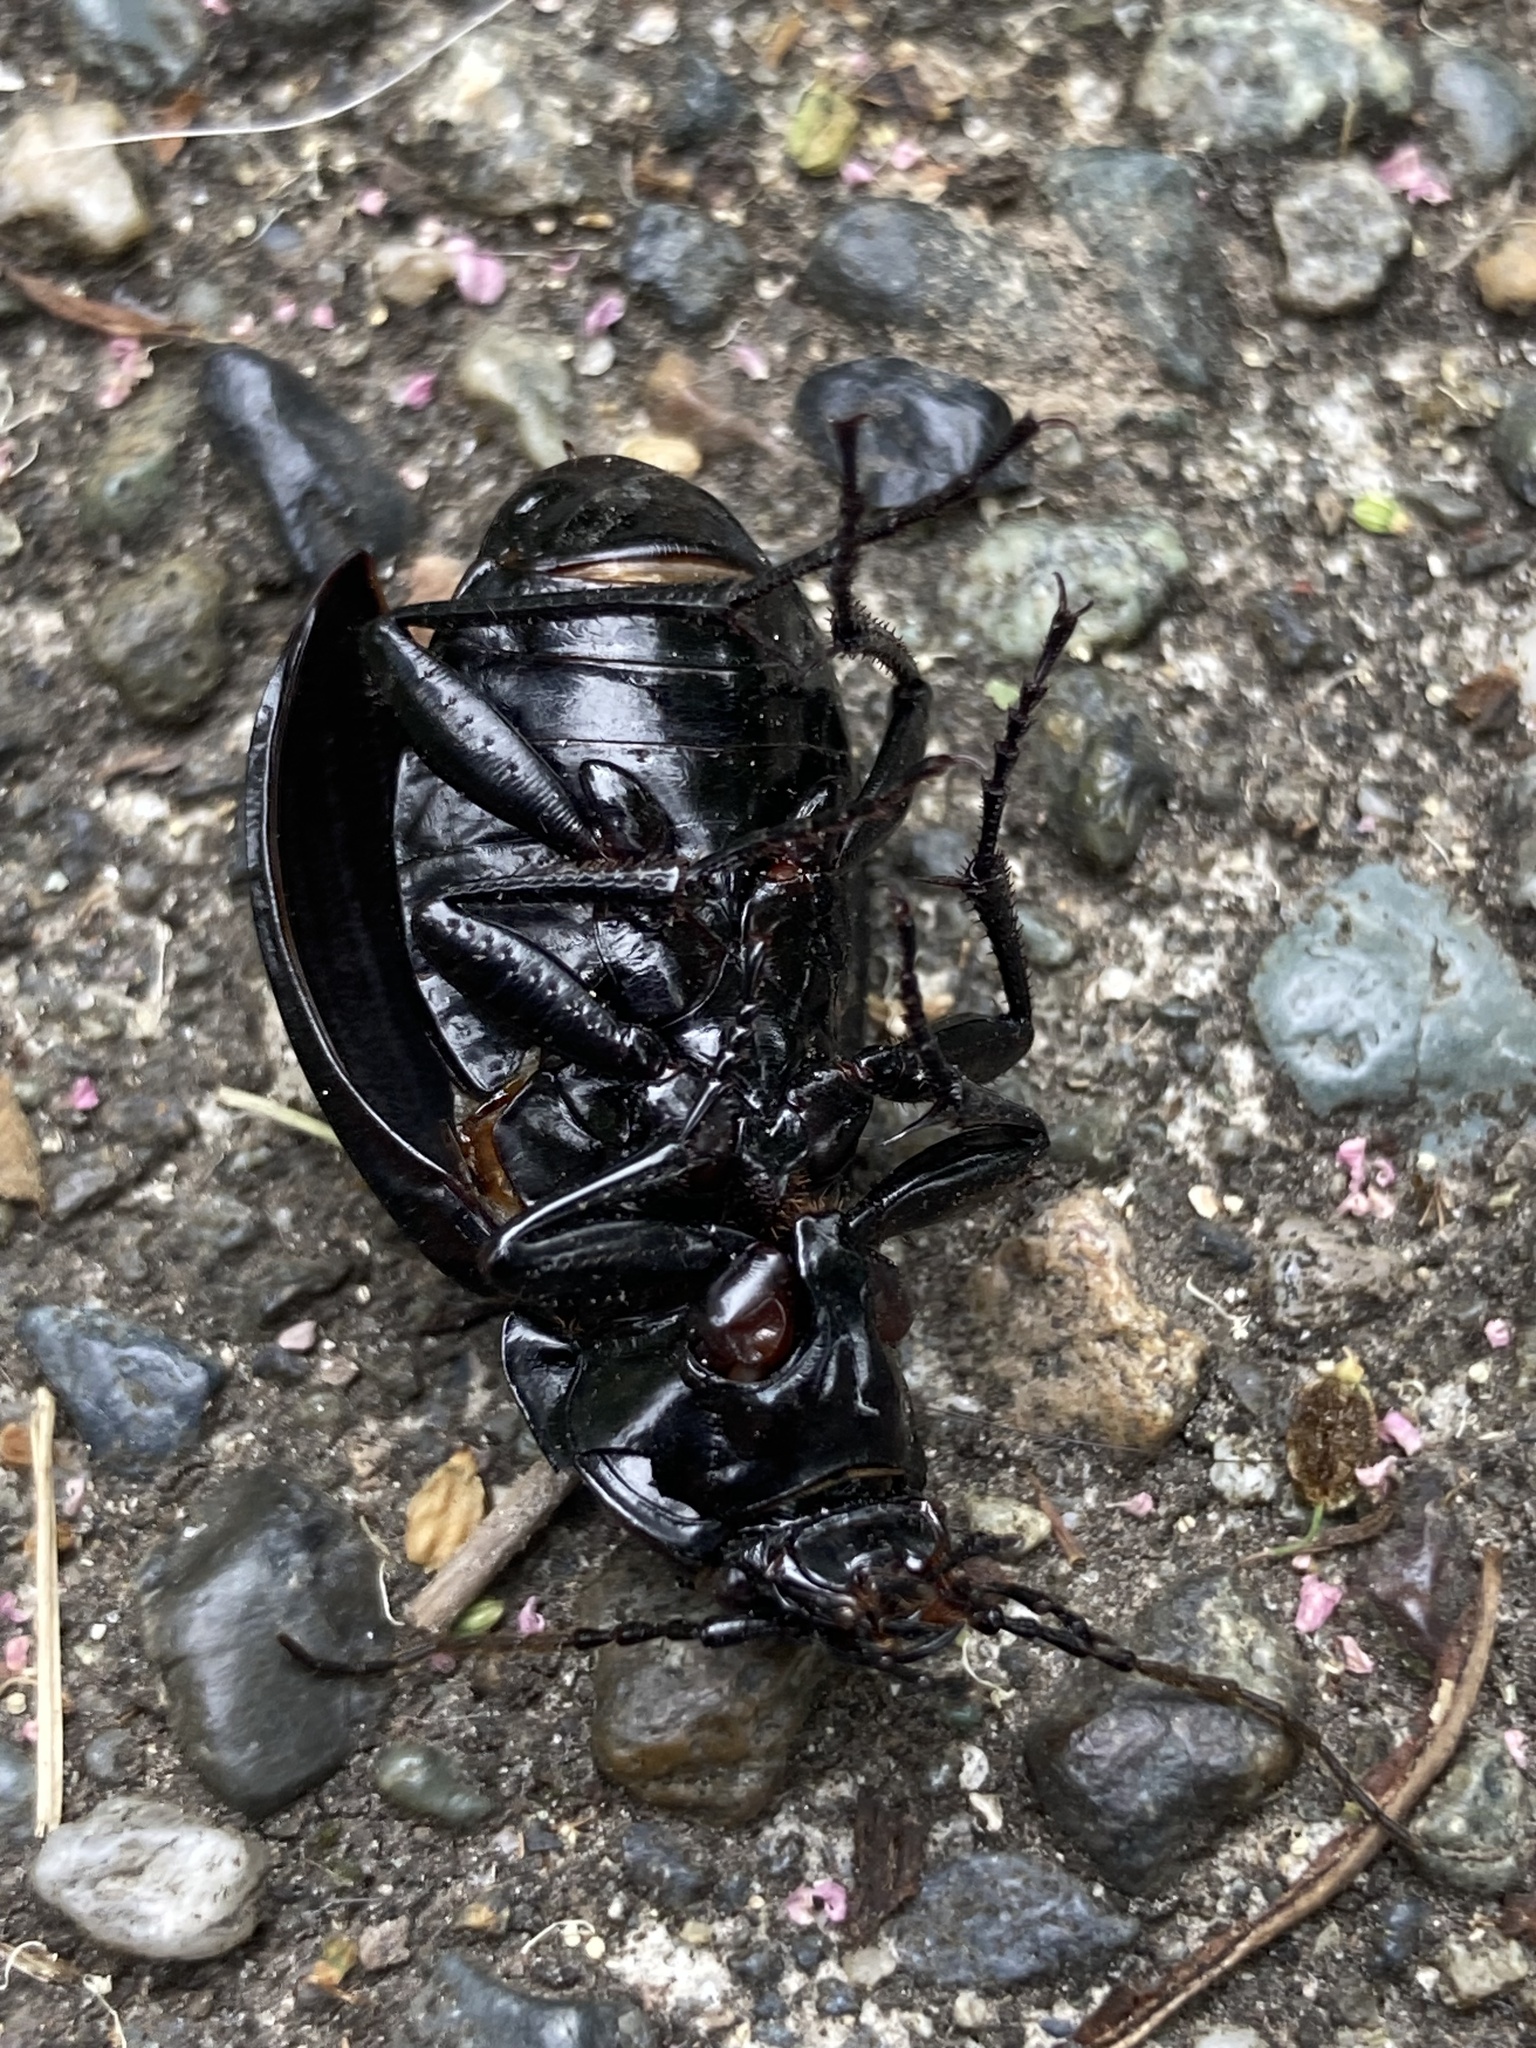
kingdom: Animalia
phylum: Arthropoda
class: Insecta
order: Coleoptera
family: Carabidae
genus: Carabus
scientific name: Carabus nemoralis
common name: European ground beetle
